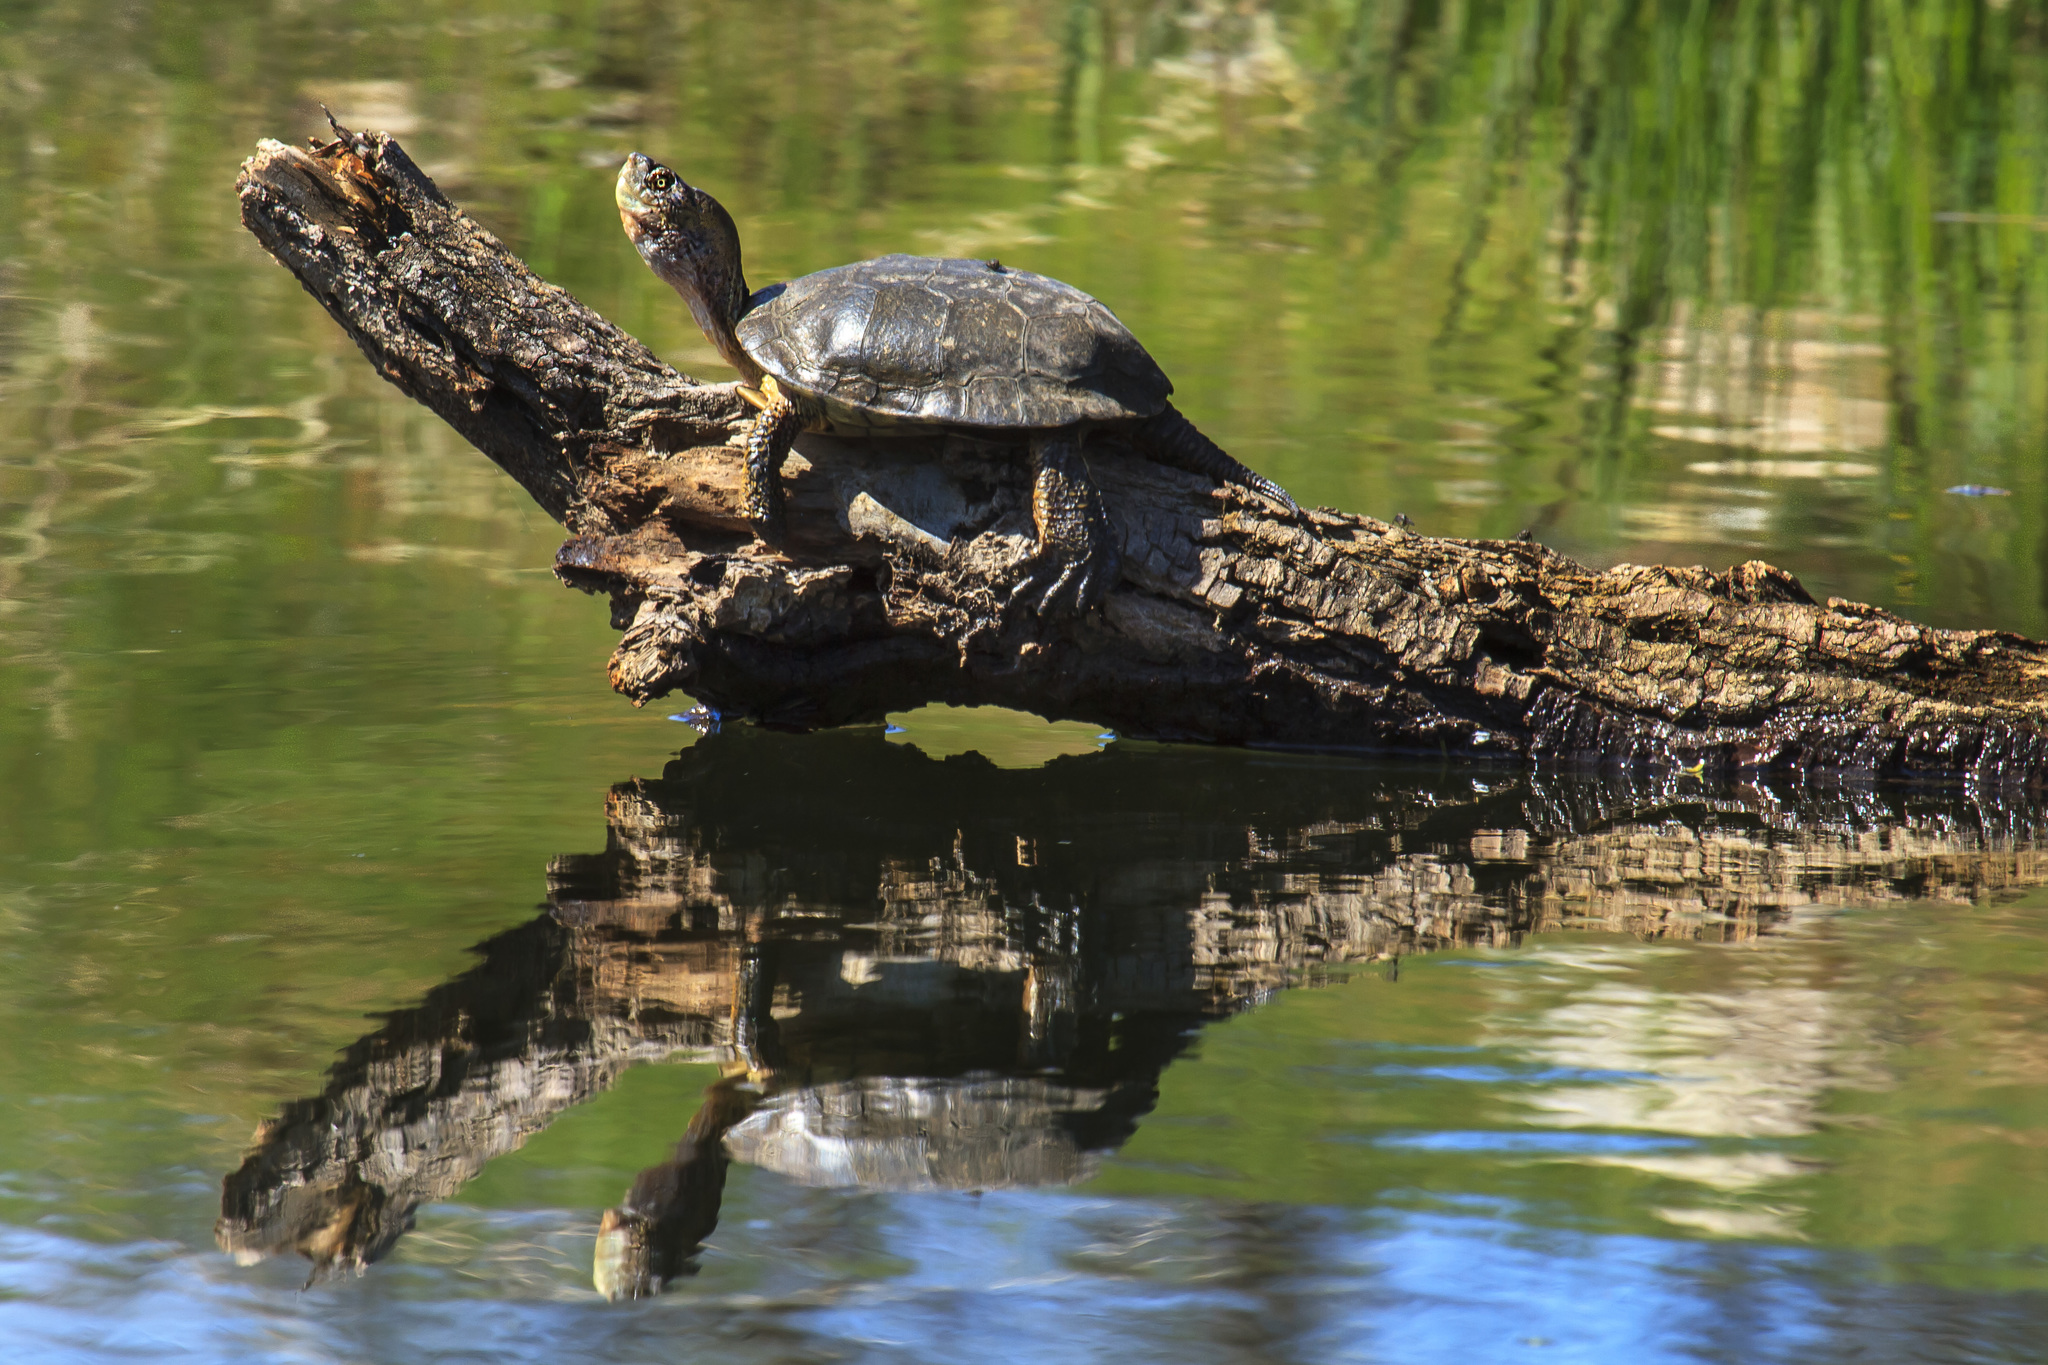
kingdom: Animalia
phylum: Chordata
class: Testudines
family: Emydidae
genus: Actinemys
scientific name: Actinemys marmorata
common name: Western pond turtle
